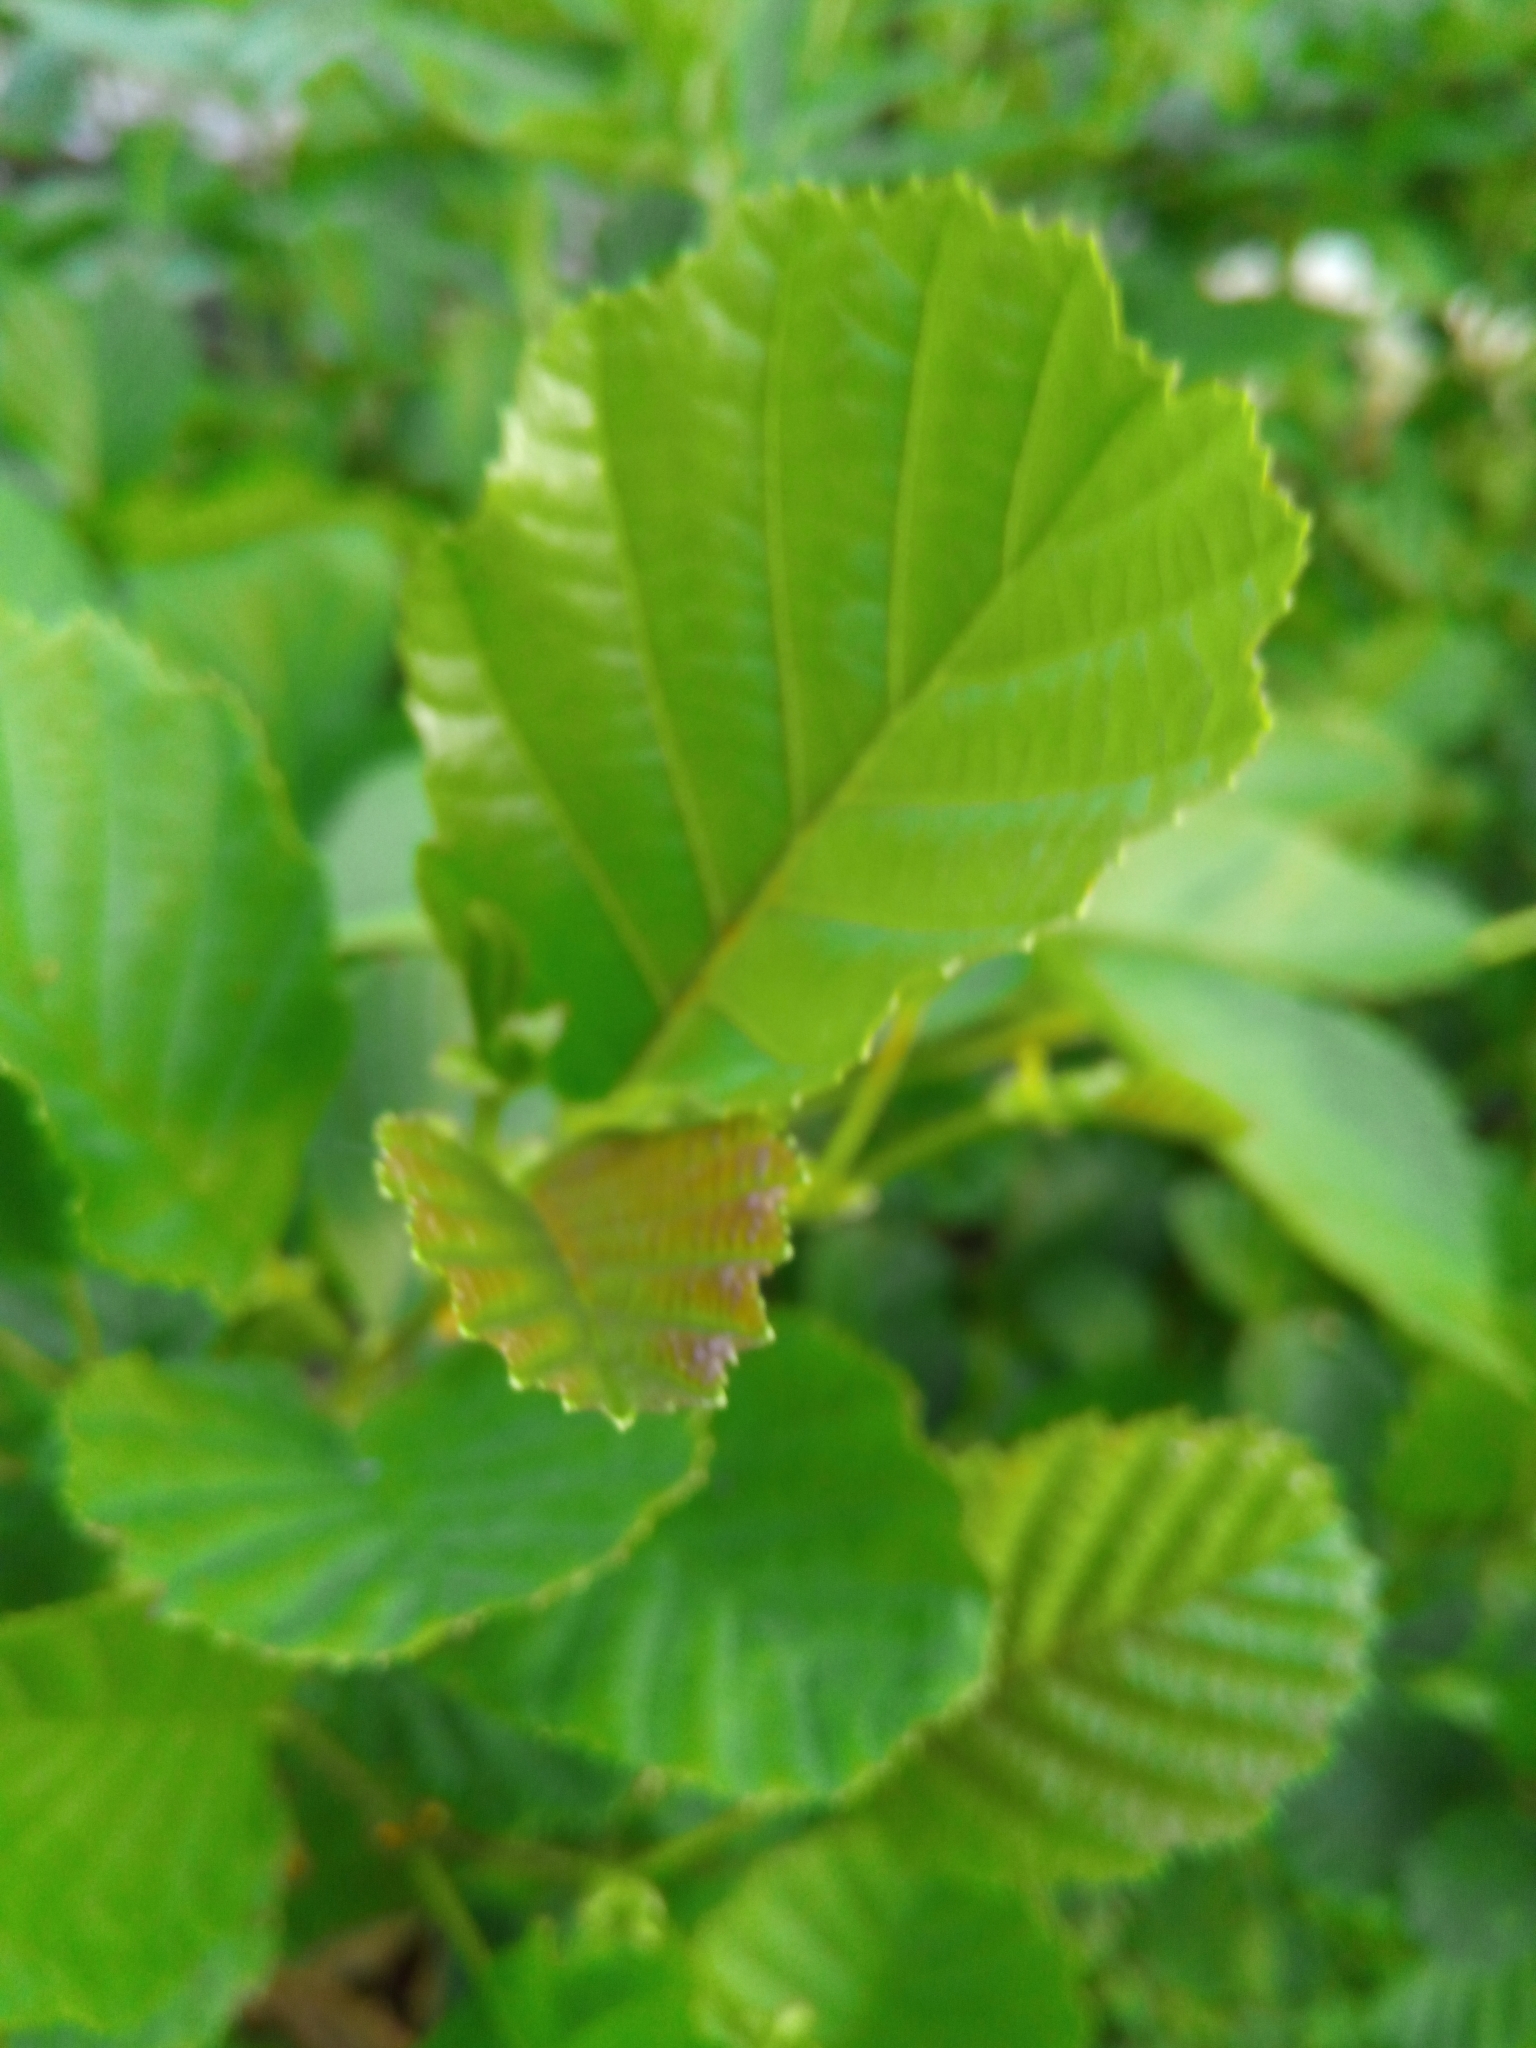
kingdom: Plantae
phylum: Tracheophyta
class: Magnoliopsida
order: Fagales
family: Betulaceae
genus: Alnus
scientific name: Alnus glutinosa
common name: Black alder
